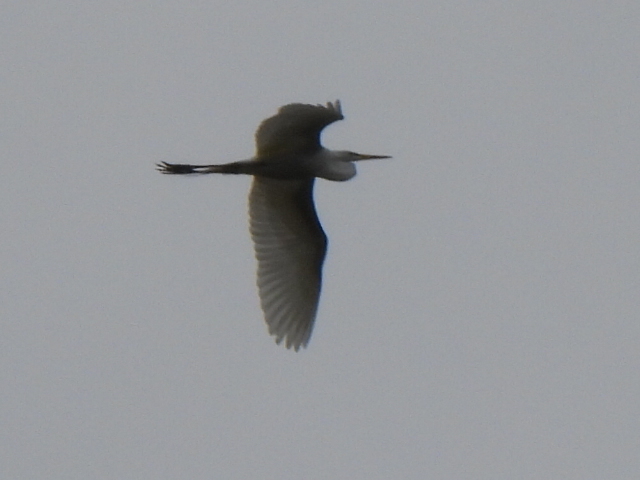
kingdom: Animalia
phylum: Chordata
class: Aves
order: Pelecaniformes
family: Ardeidae
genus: Ardea
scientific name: Ardea alba
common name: Great egret
